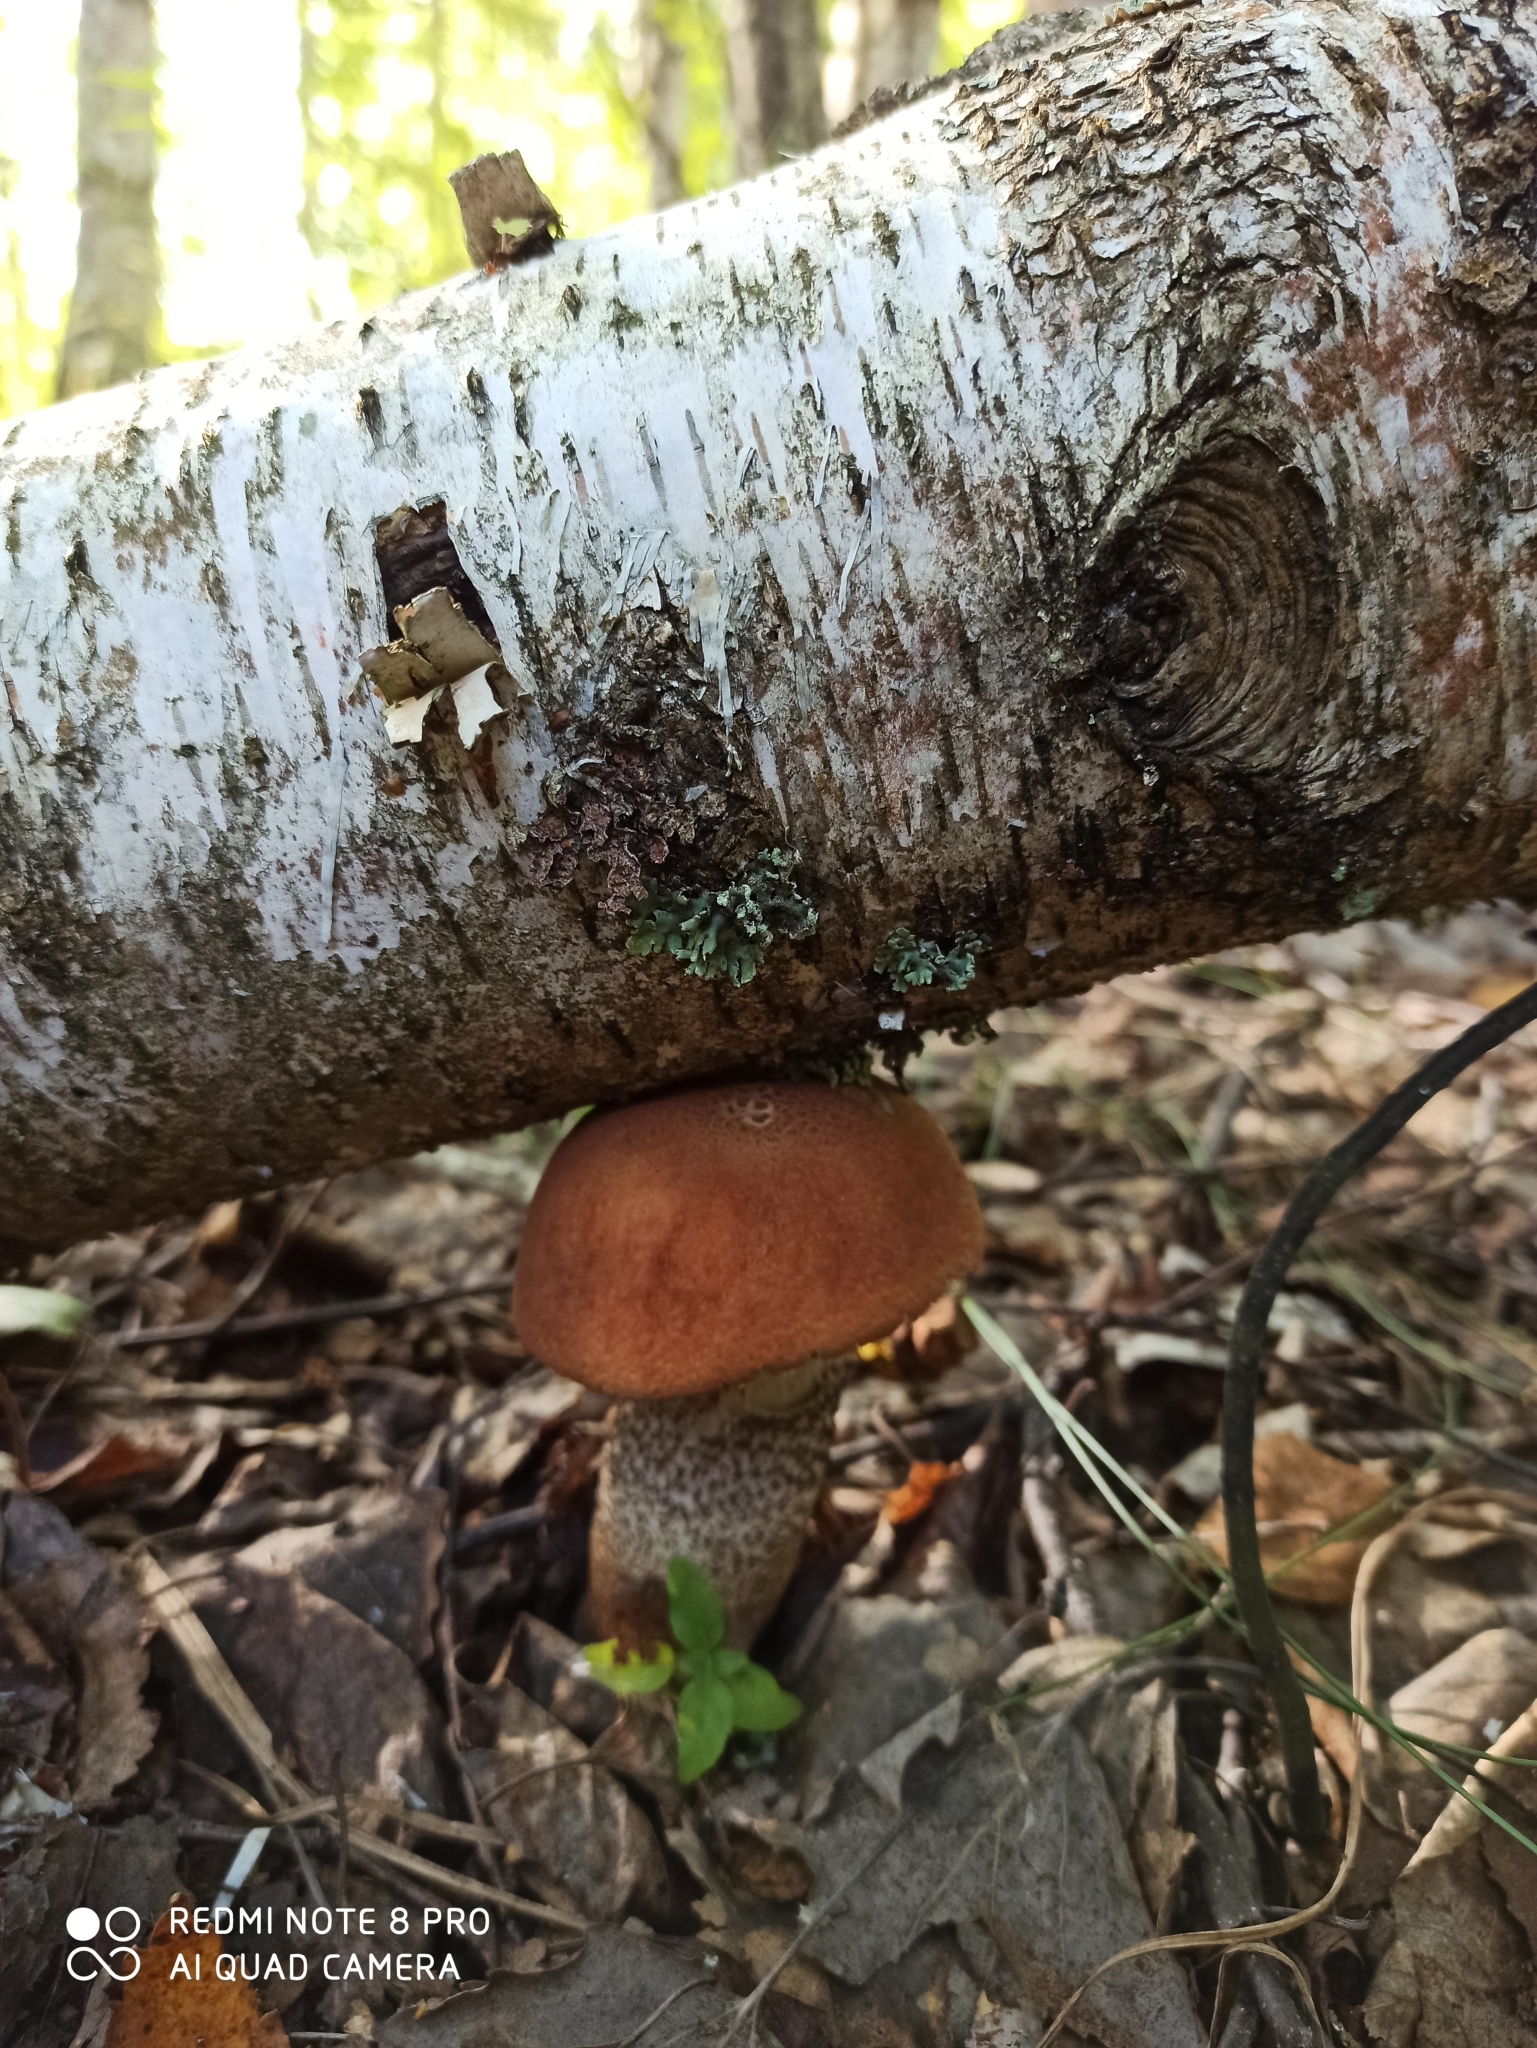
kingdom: Fungi
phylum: Basidiomycota
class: Agaricomycetes
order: Boletales
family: Boletaceae
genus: Leccinum
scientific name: Leccinum aurantiacum
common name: Orange bolete
